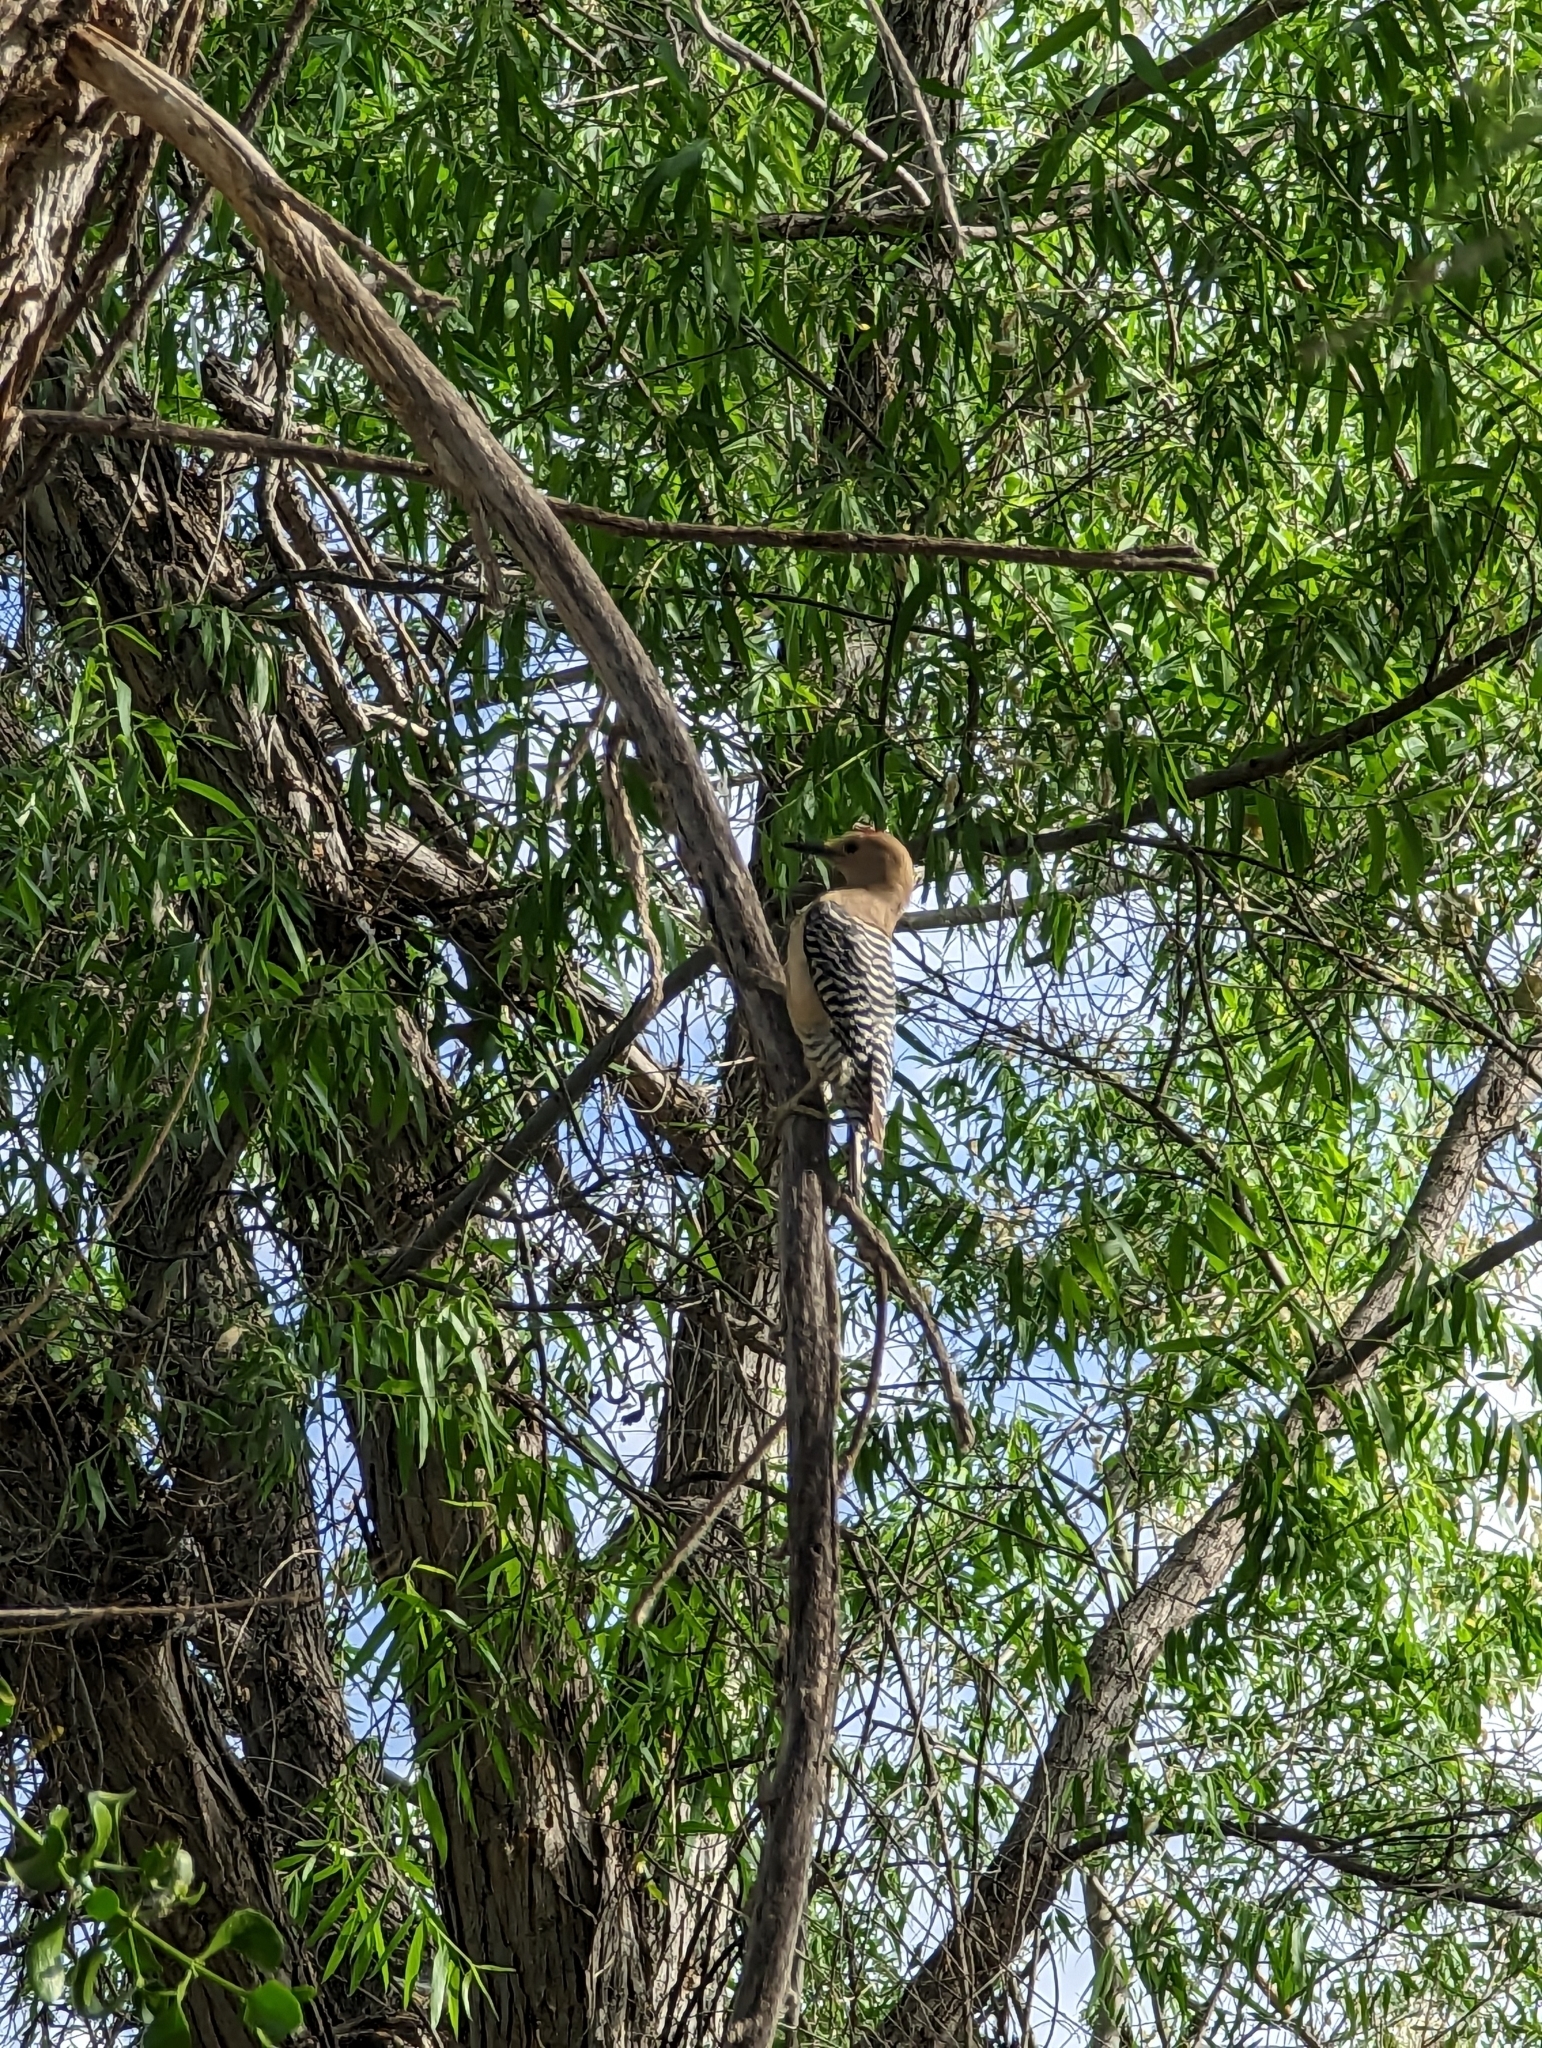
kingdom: Animalia
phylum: Chordata
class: Aves
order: Piciformes
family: Picidae
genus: Melanerpes
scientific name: Melanerpes uropygialis
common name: Gila woodpecker
